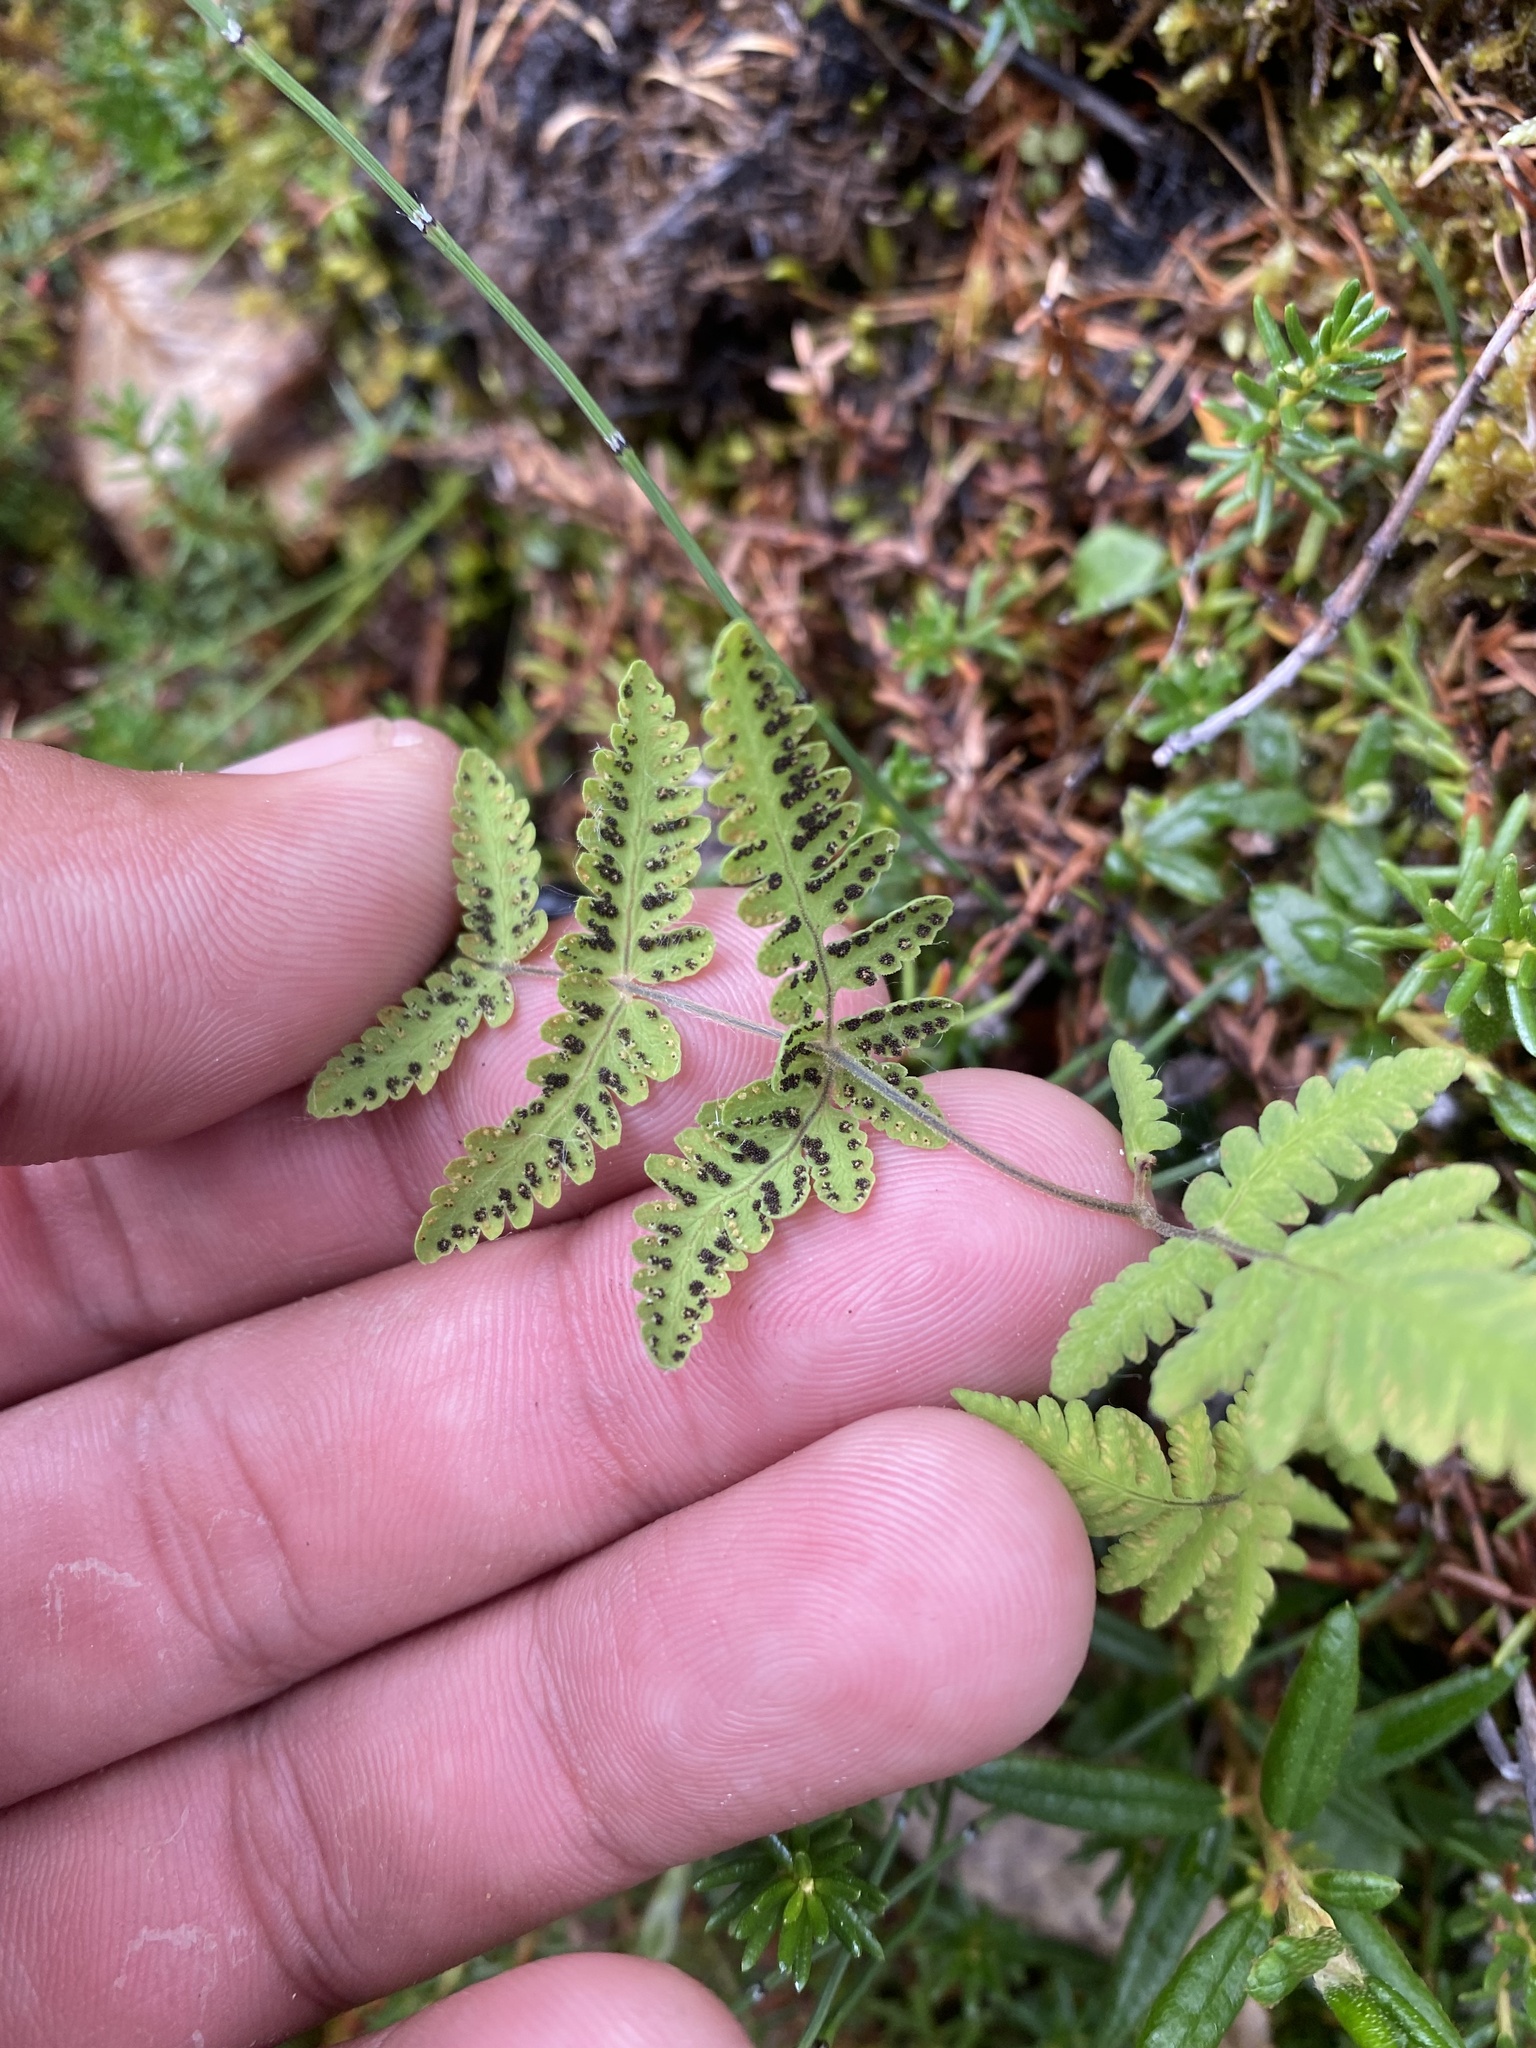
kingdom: Plantae
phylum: Tracheophyta
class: Polypodiopsida
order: Polypodiales
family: Cystopteridaceae
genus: Gymnocarpium
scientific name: Gymnocarpium jessoense
